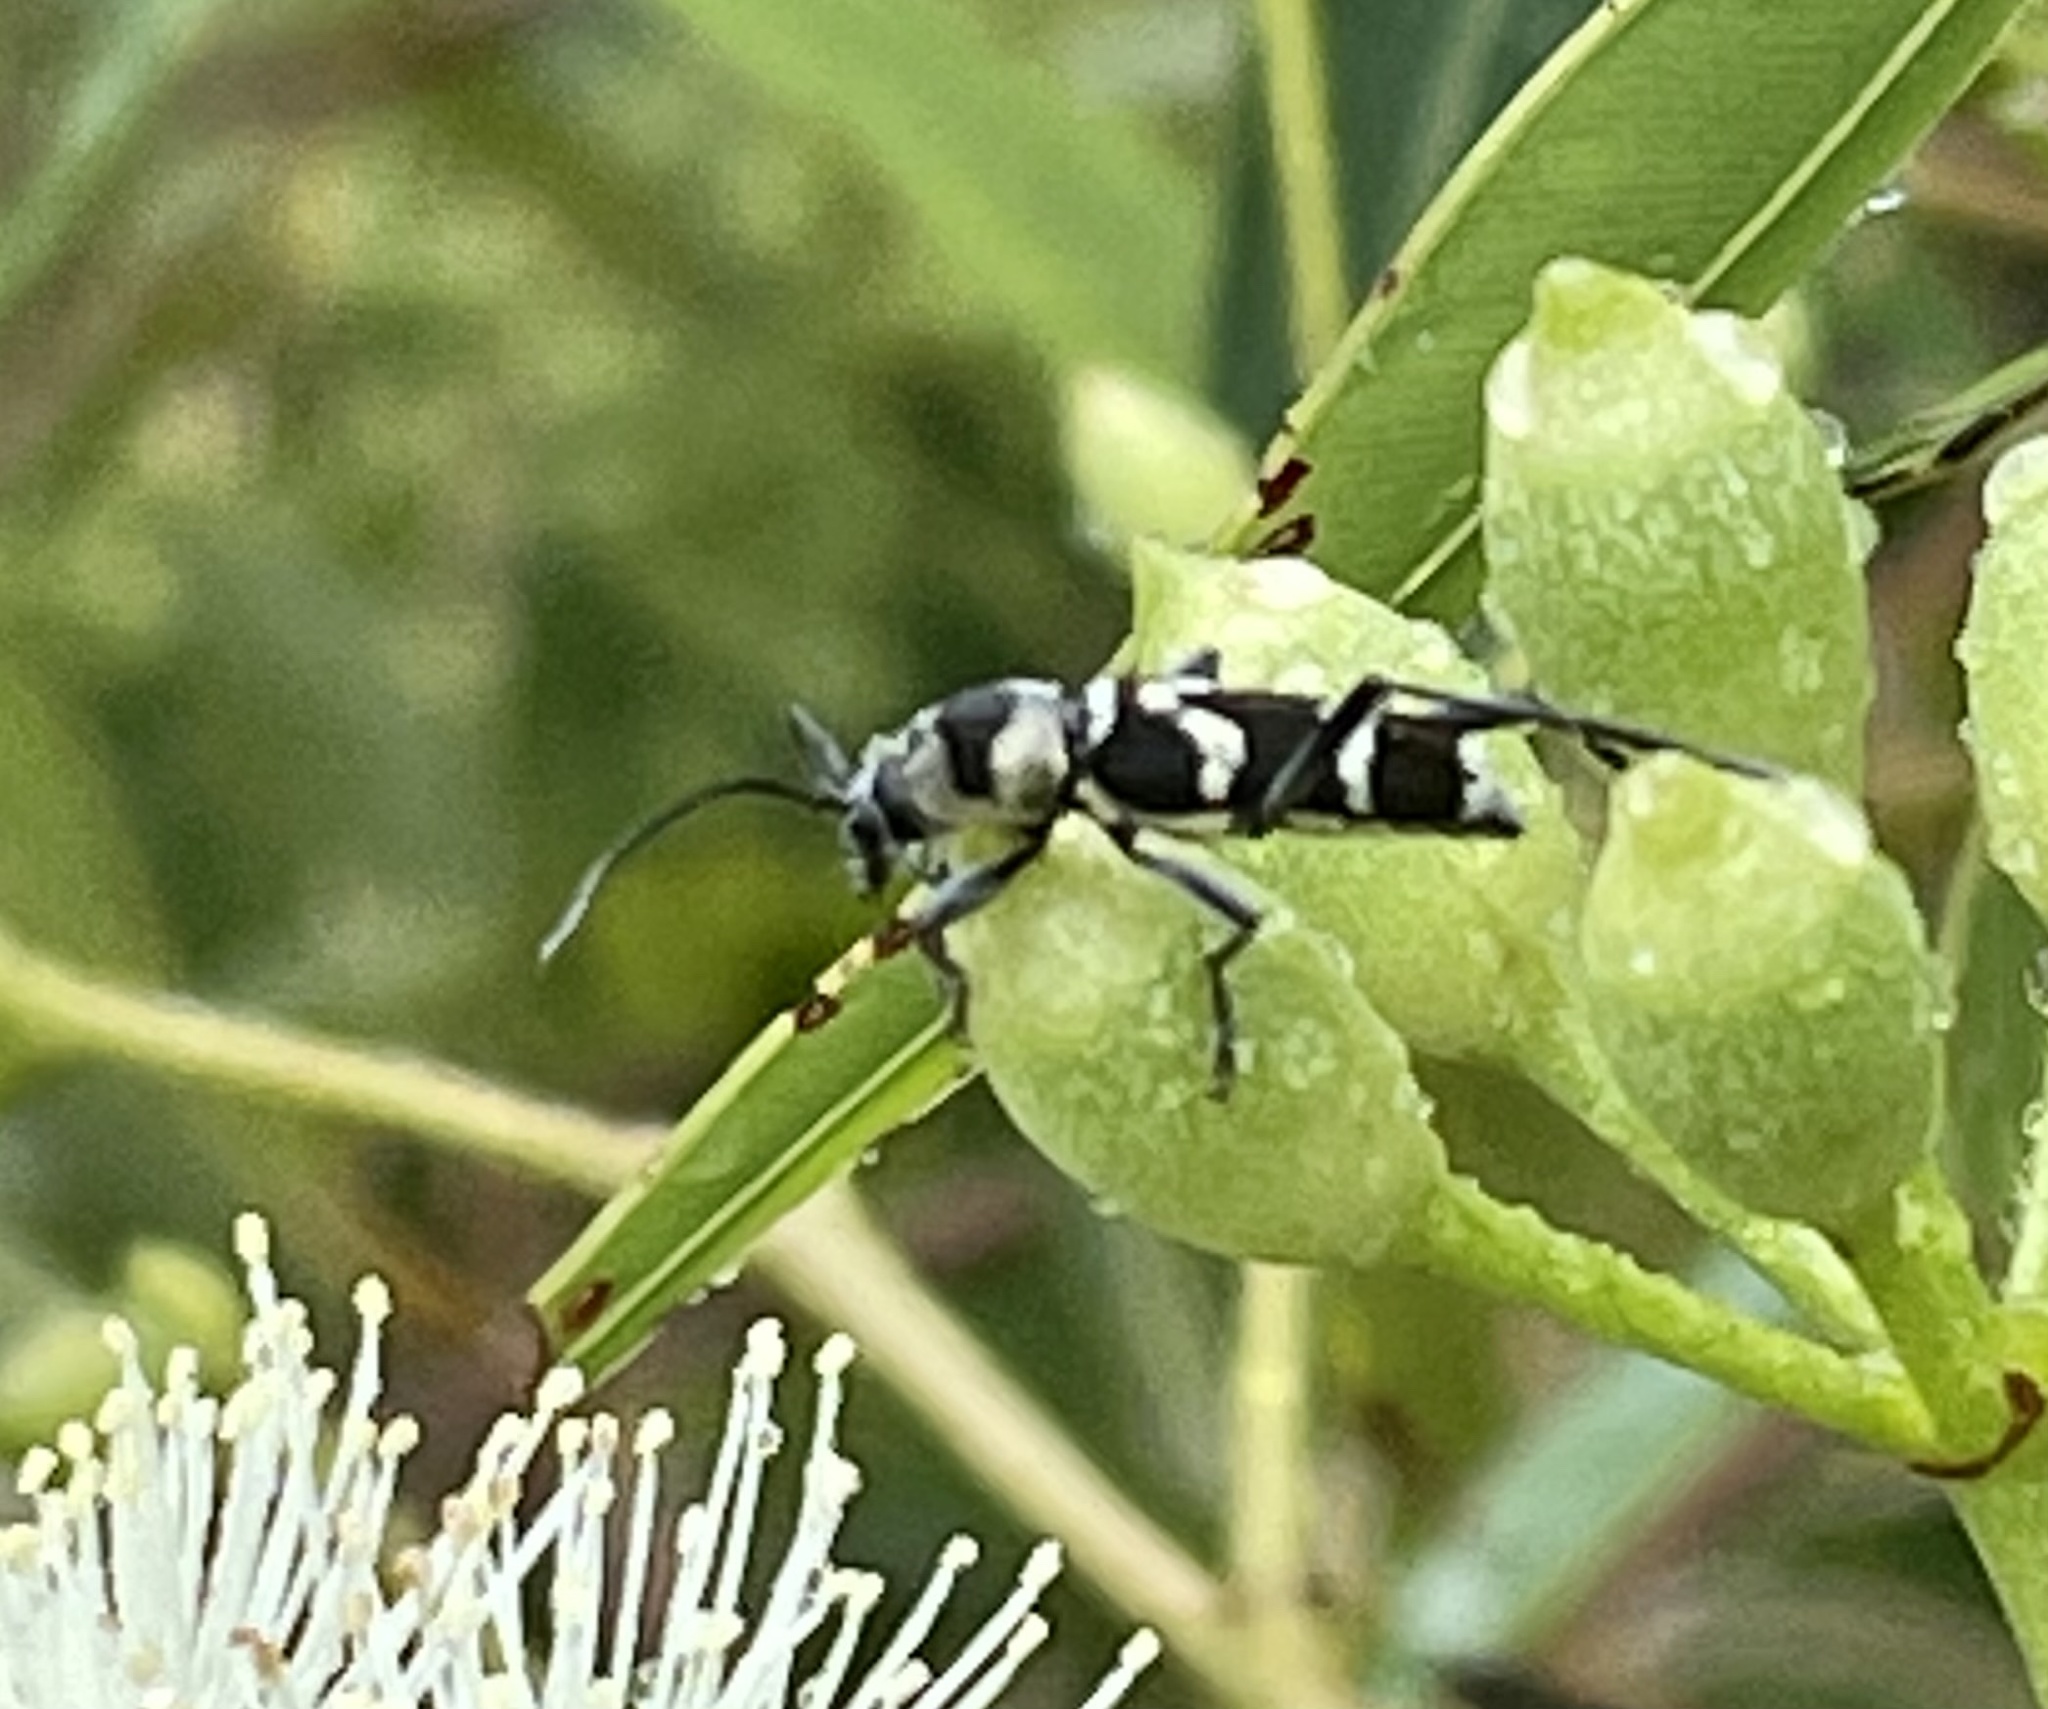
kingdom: Animalia
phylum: Arthropoda
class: Insecta
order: Coleoptera
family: Cerambycidae
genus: Clytus
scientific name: Clytus curtisi
